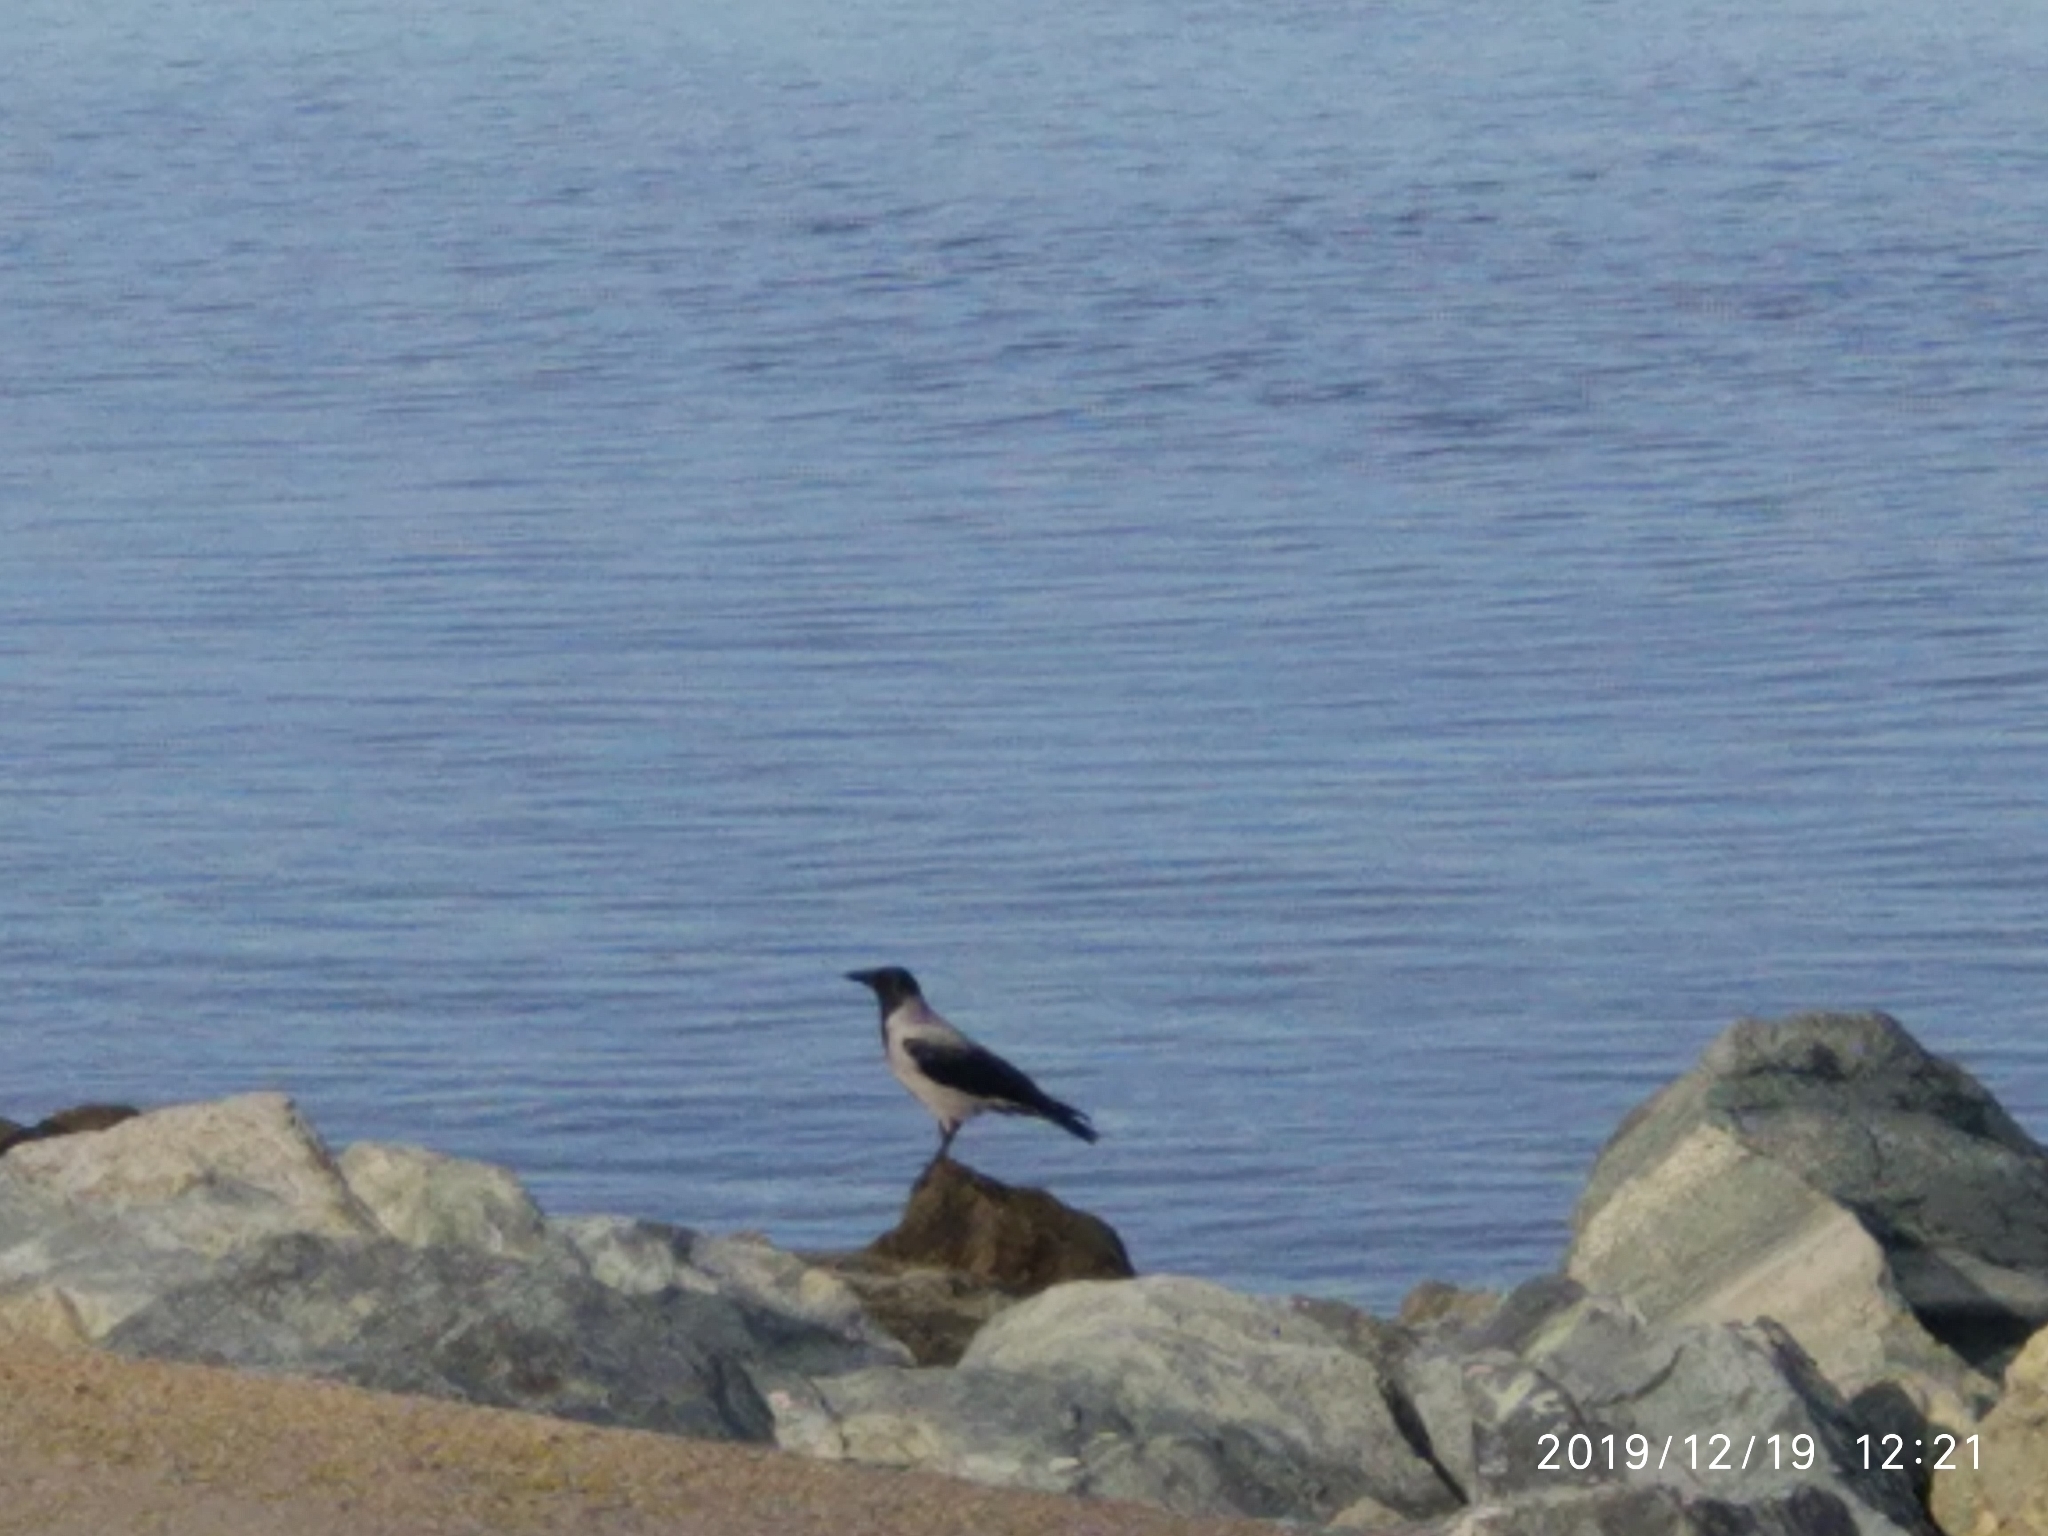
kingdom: Animalia
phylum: Chordata
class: Aves
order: Passeriformes
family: Corvidae
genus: Corvus
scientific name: Corvus cornix
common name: Hooded crow
